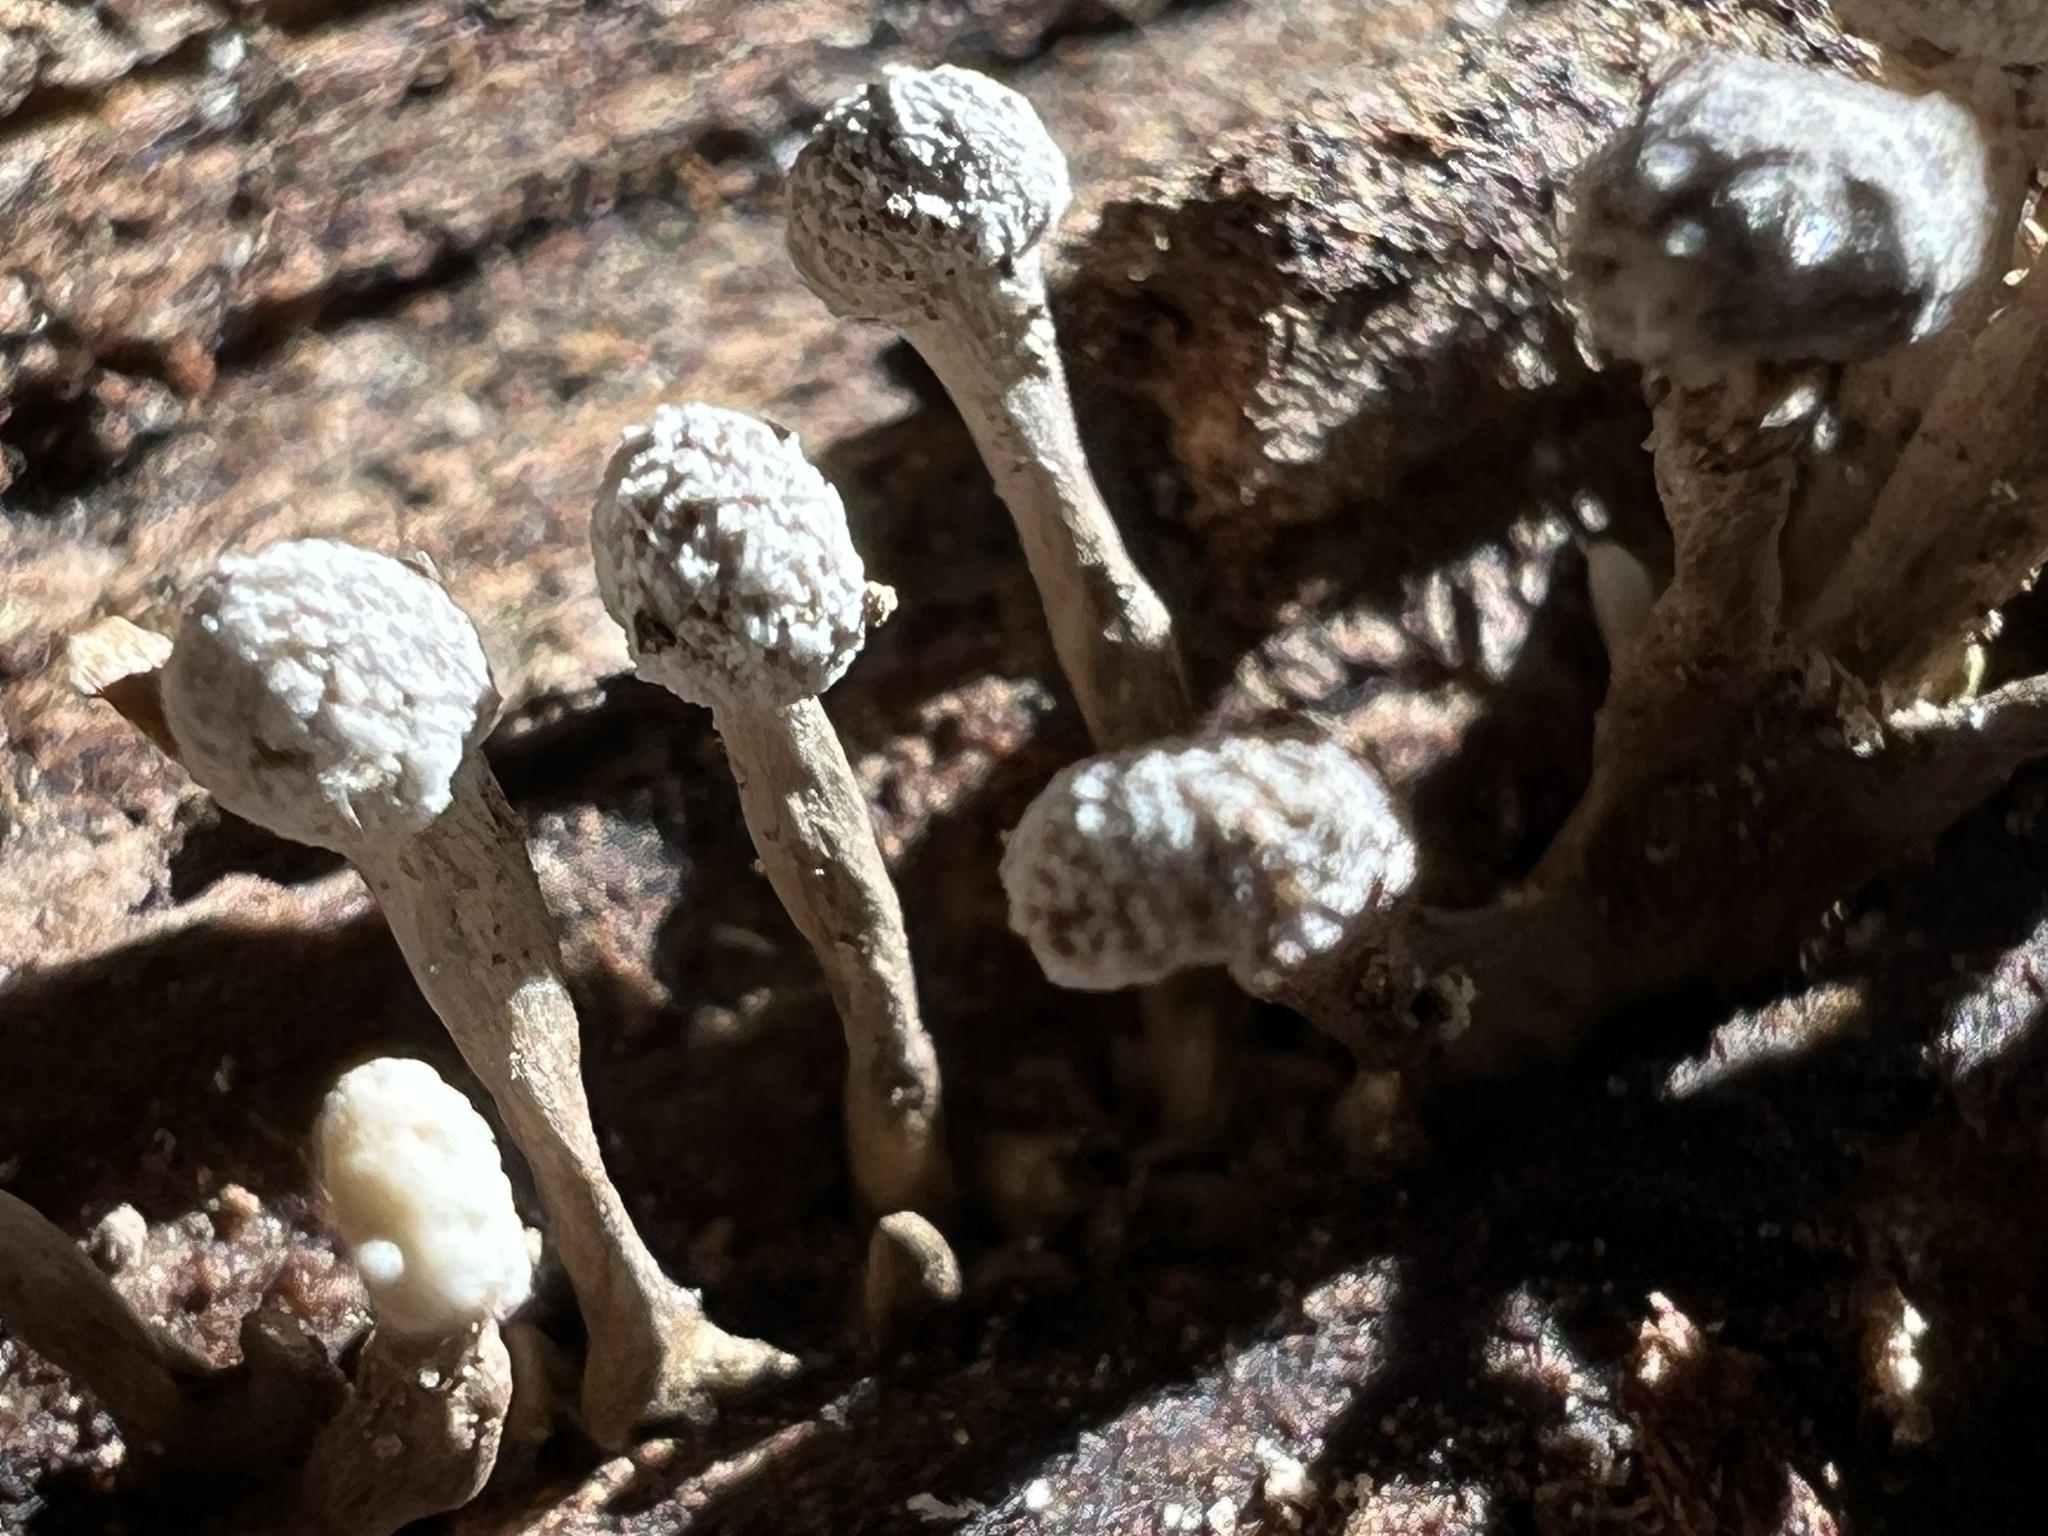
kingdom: Fungi
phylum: Basidiomycota
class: Atractiellomycetes
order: Atractiellales
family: Phleogenaceae
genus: Phleogena
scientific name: Phleogena faginea
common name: Fenugreek stalkball
